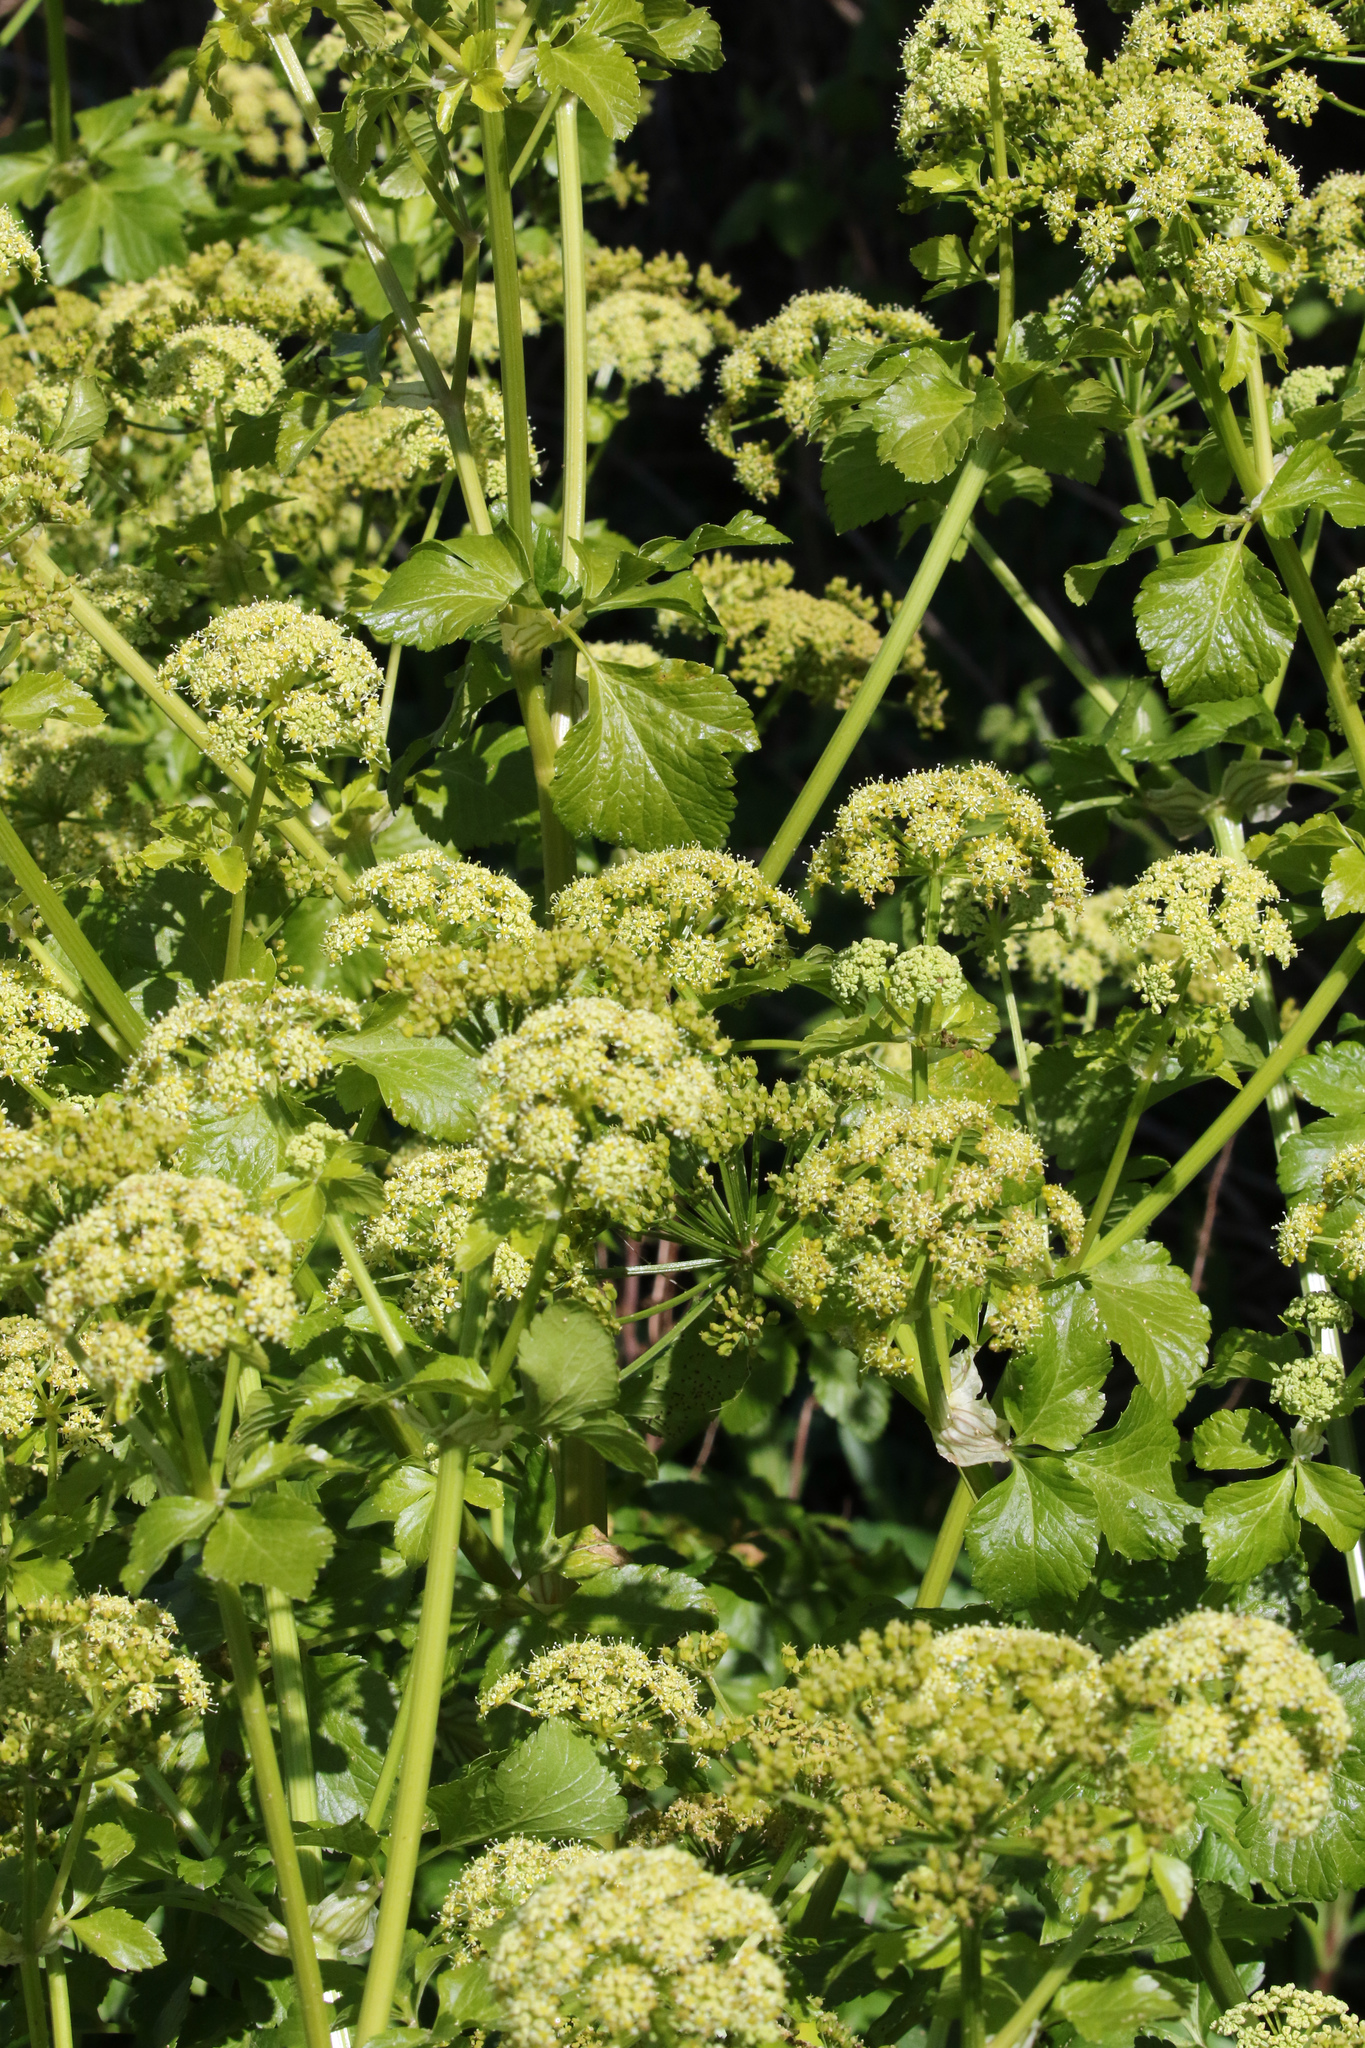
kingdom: Plantae
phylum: Tracheophyta
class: Magnoliopsida
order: Apiales
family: Apiaceae
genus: Smyrnium
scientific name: Smyrnium olusatrum
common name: Alexanders
